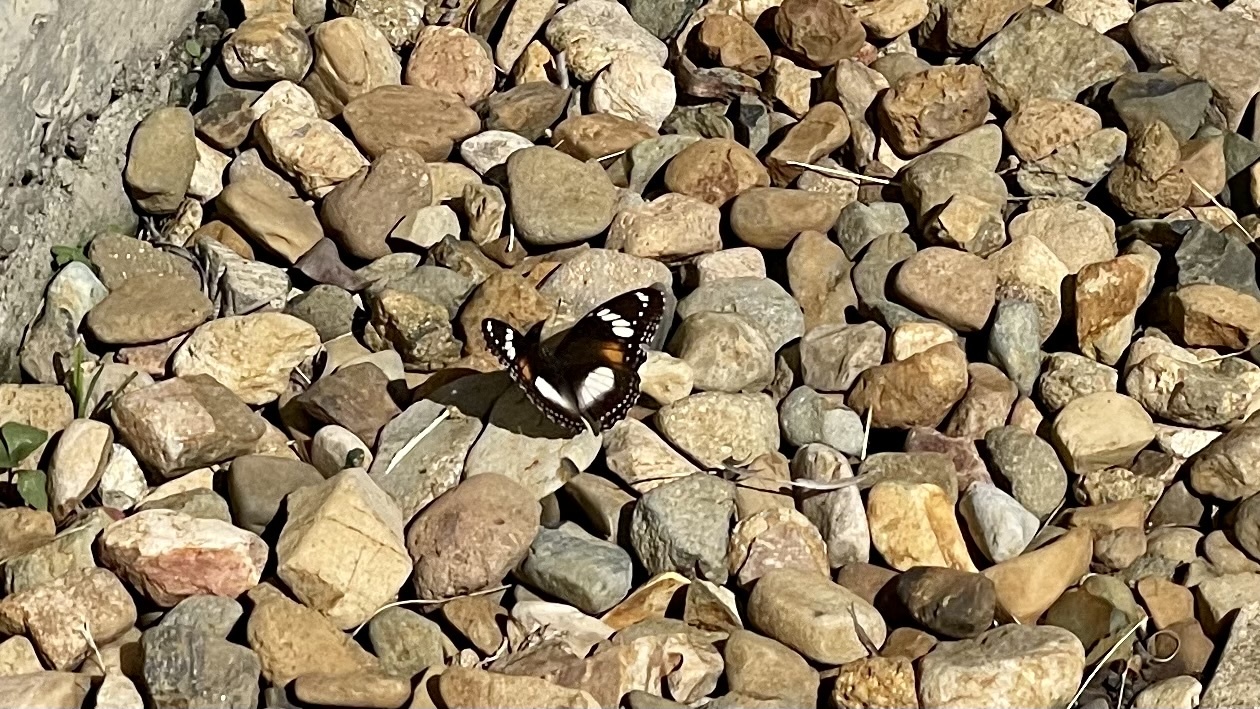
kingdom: Animalia
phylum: Arthropoda
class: Insecta
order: Lepidoptera
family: Nymphalidae
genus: Hypolimnas
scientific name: Hypolimnas bolina
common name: Great eggfly
